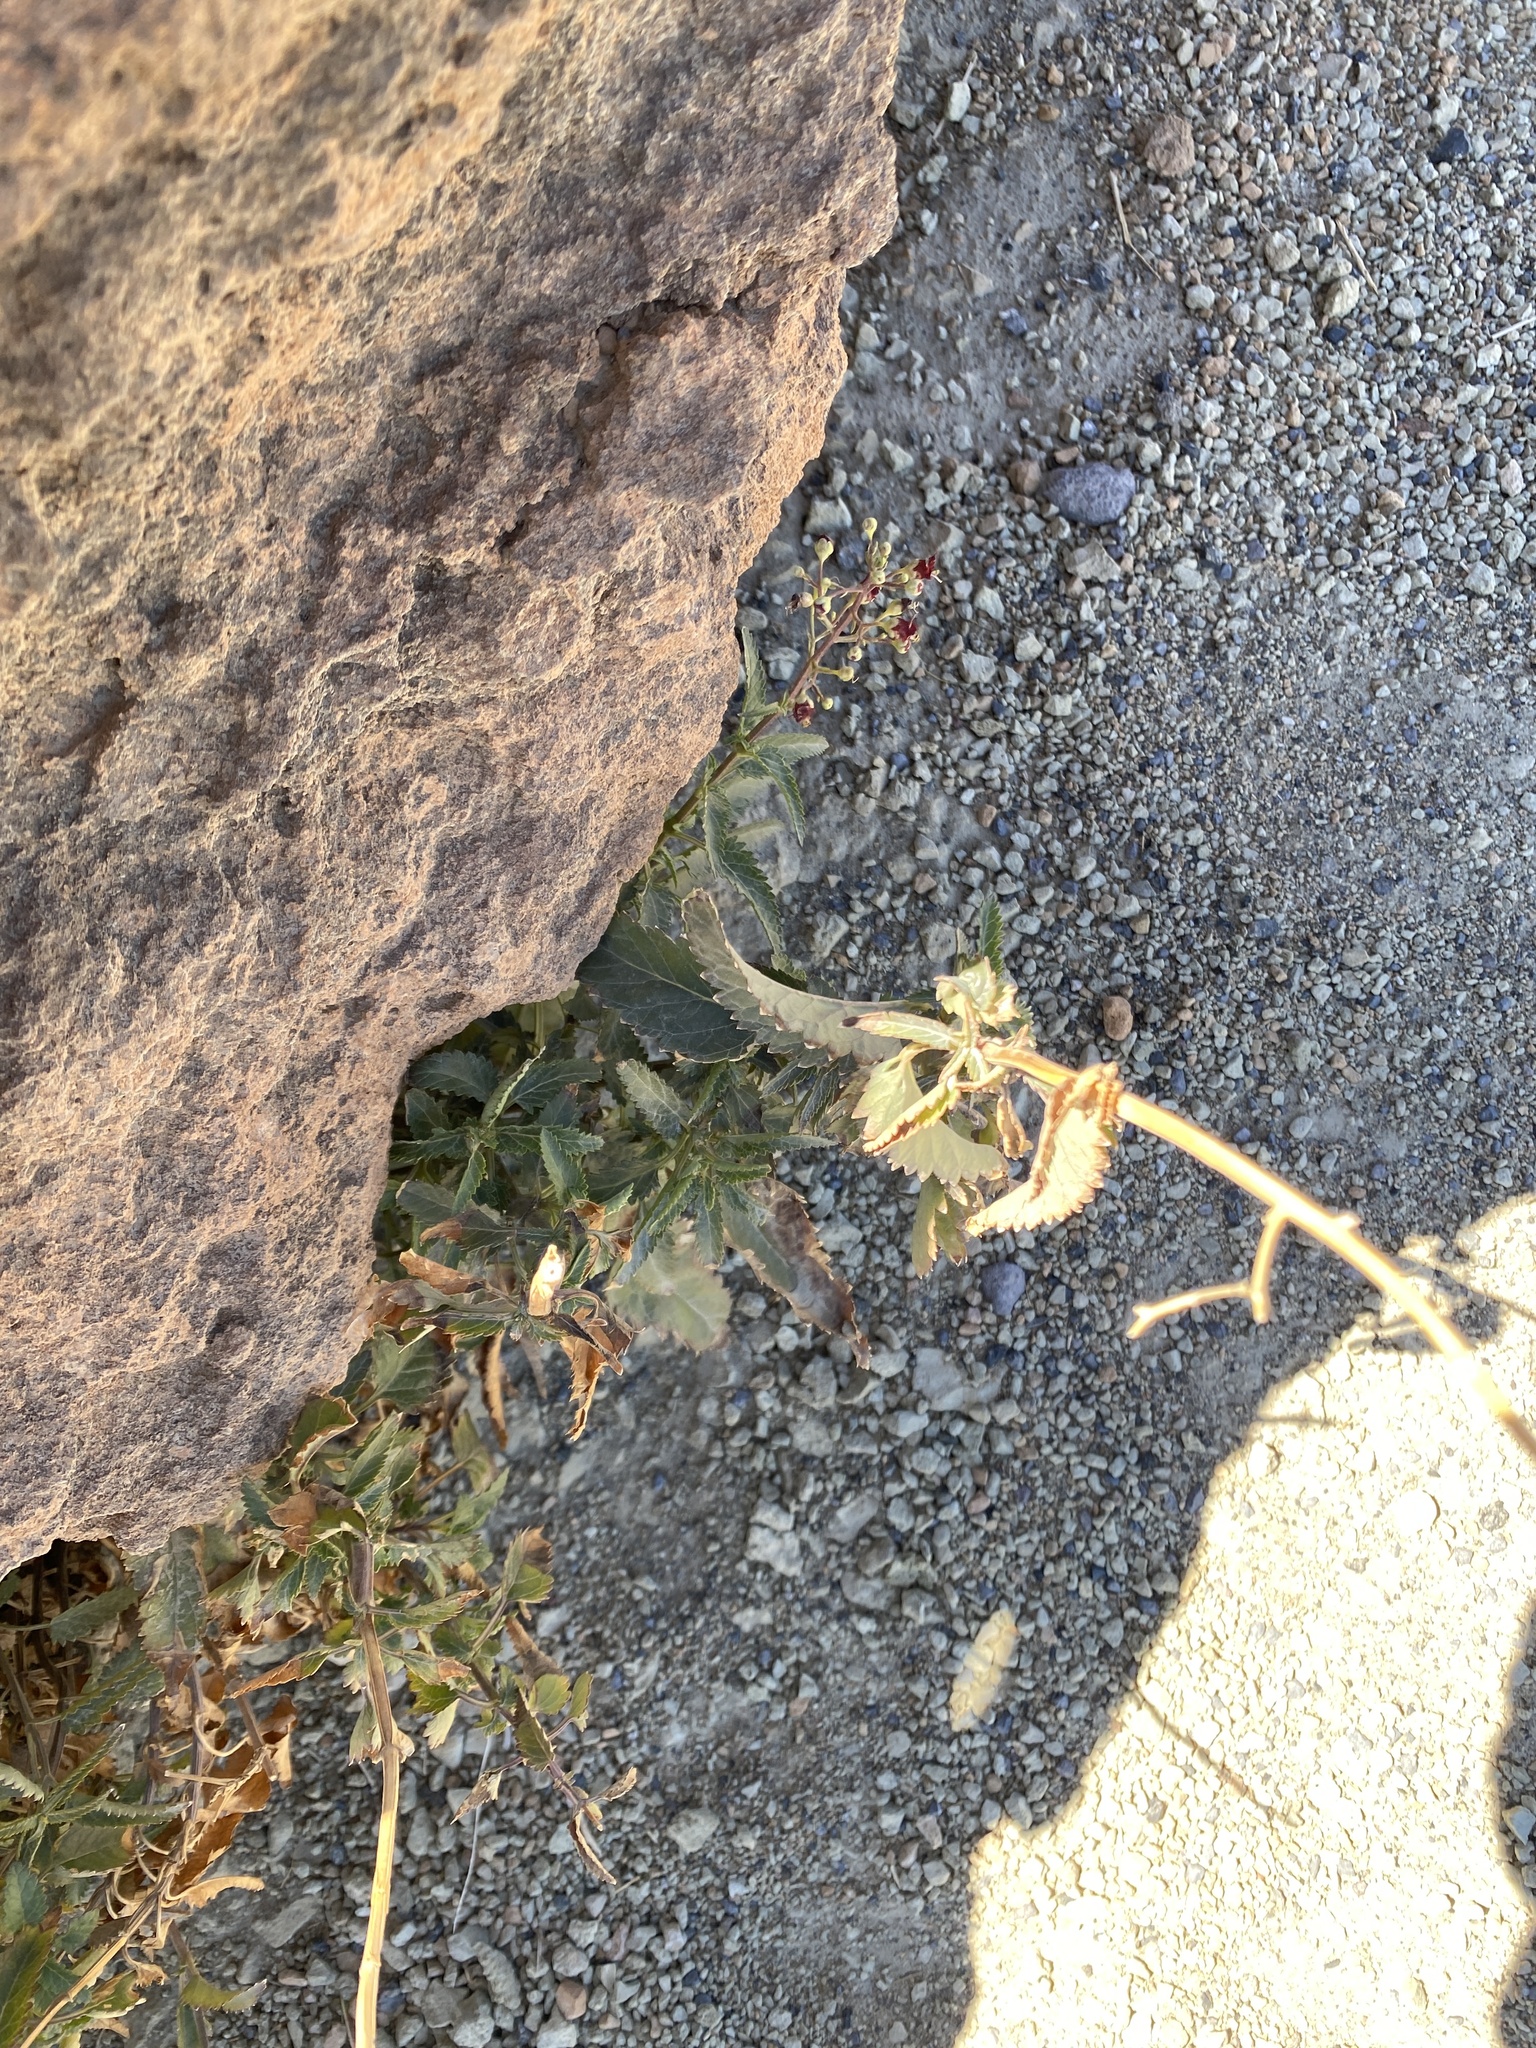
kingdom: Plantae
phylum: Tracheophyta
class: Magnoliopsida
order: Lamiales
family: Scrophulariaceae
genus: Scrophularia
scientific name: Scrophularia glabrata
